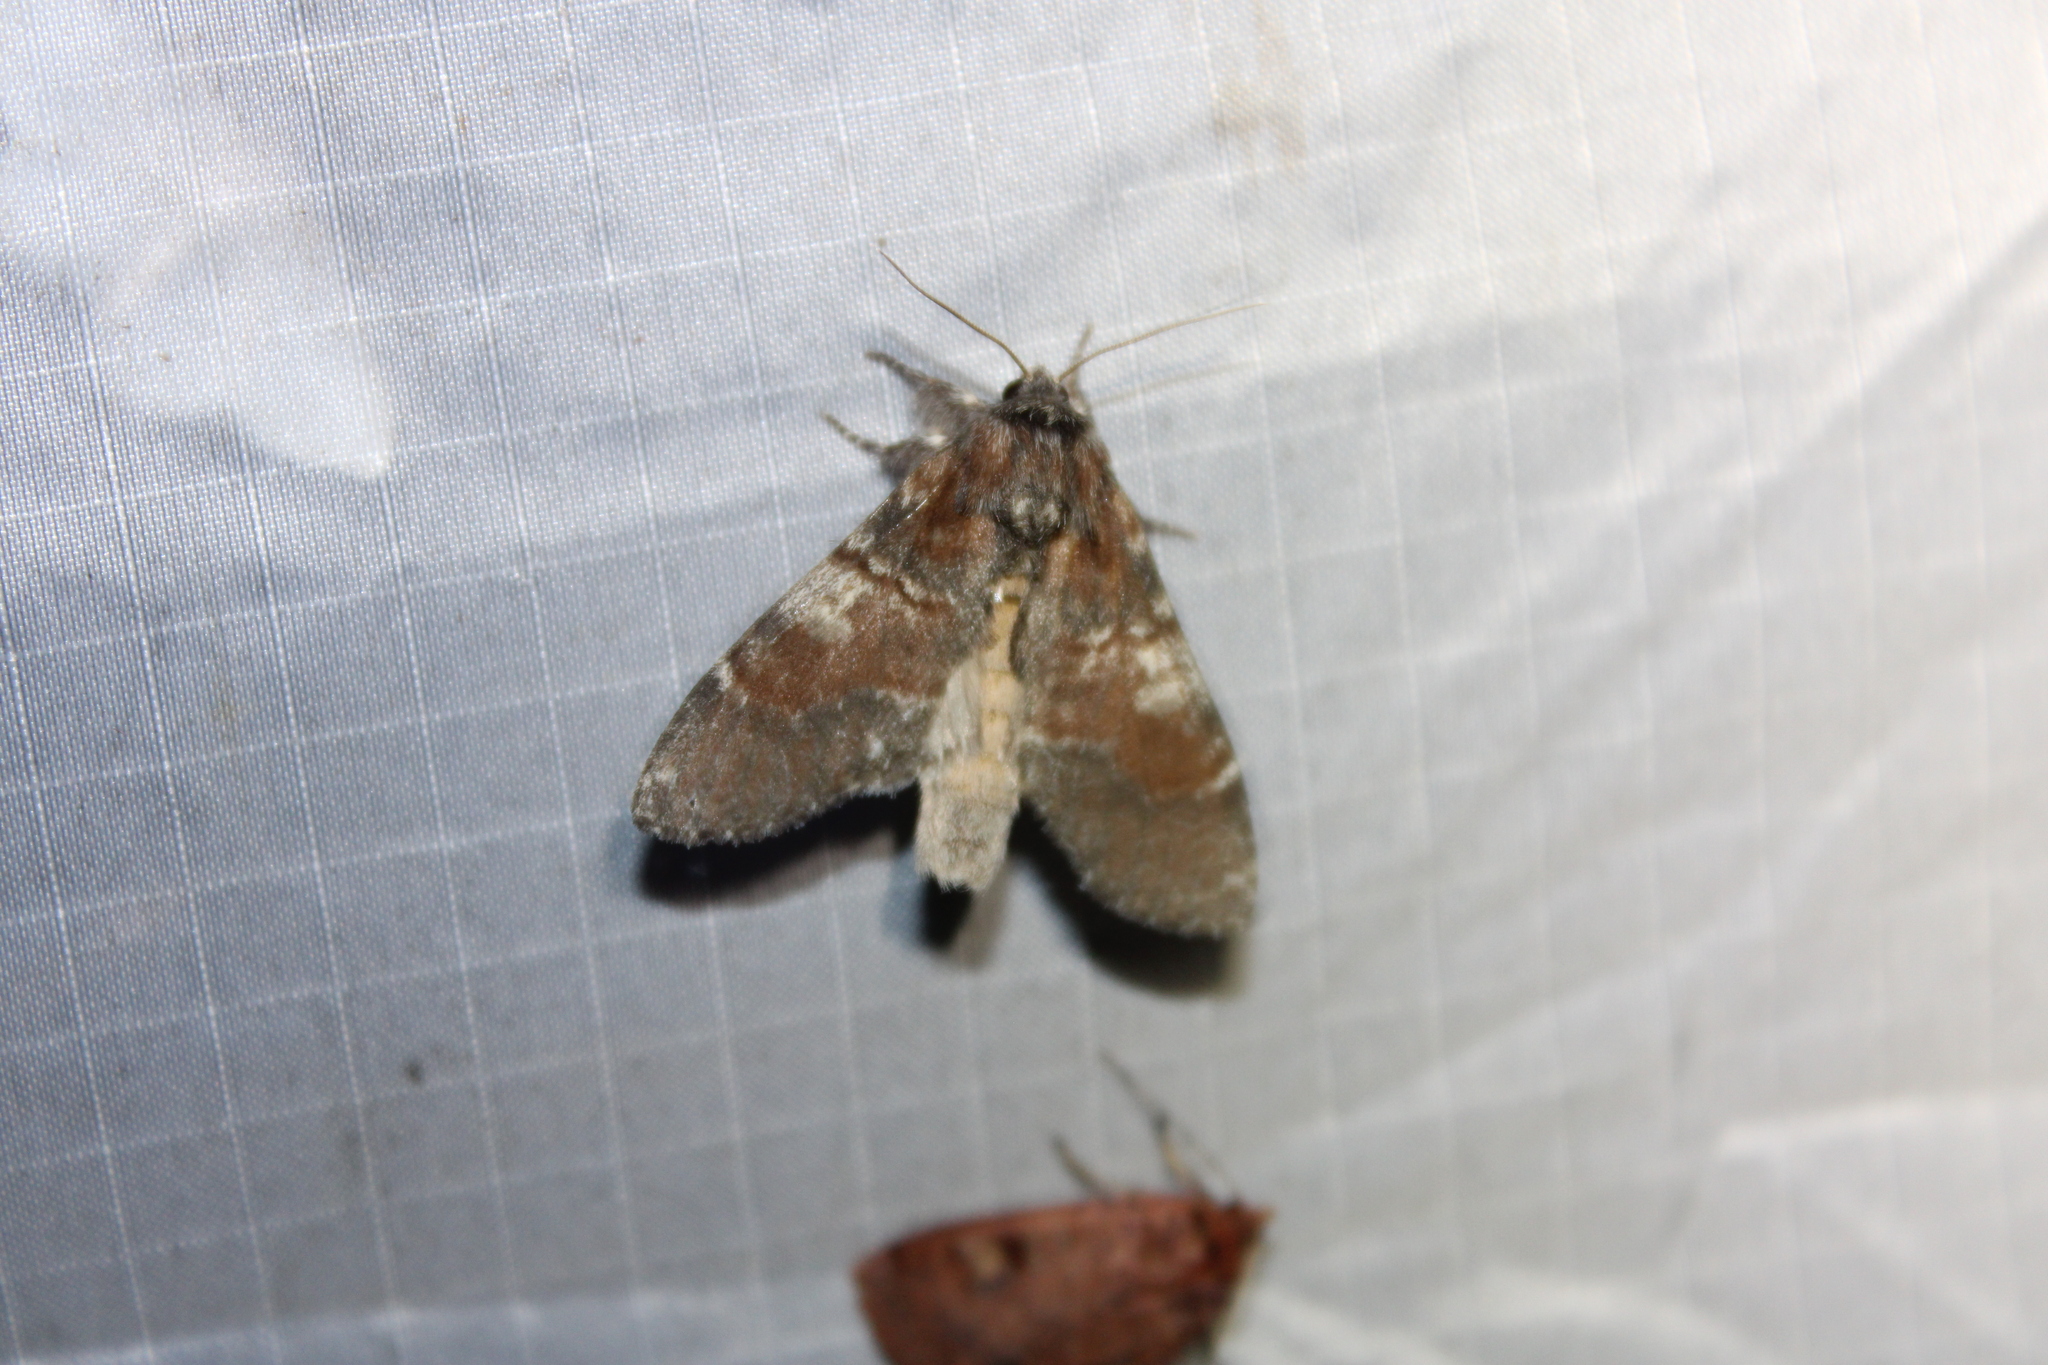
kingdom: Animalia
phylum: Arthropoda
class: Insecta
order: Lepidoptera
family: Notodontidae
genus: Peridea
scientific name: Peridea ferruginea
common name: Chocolate prominent
